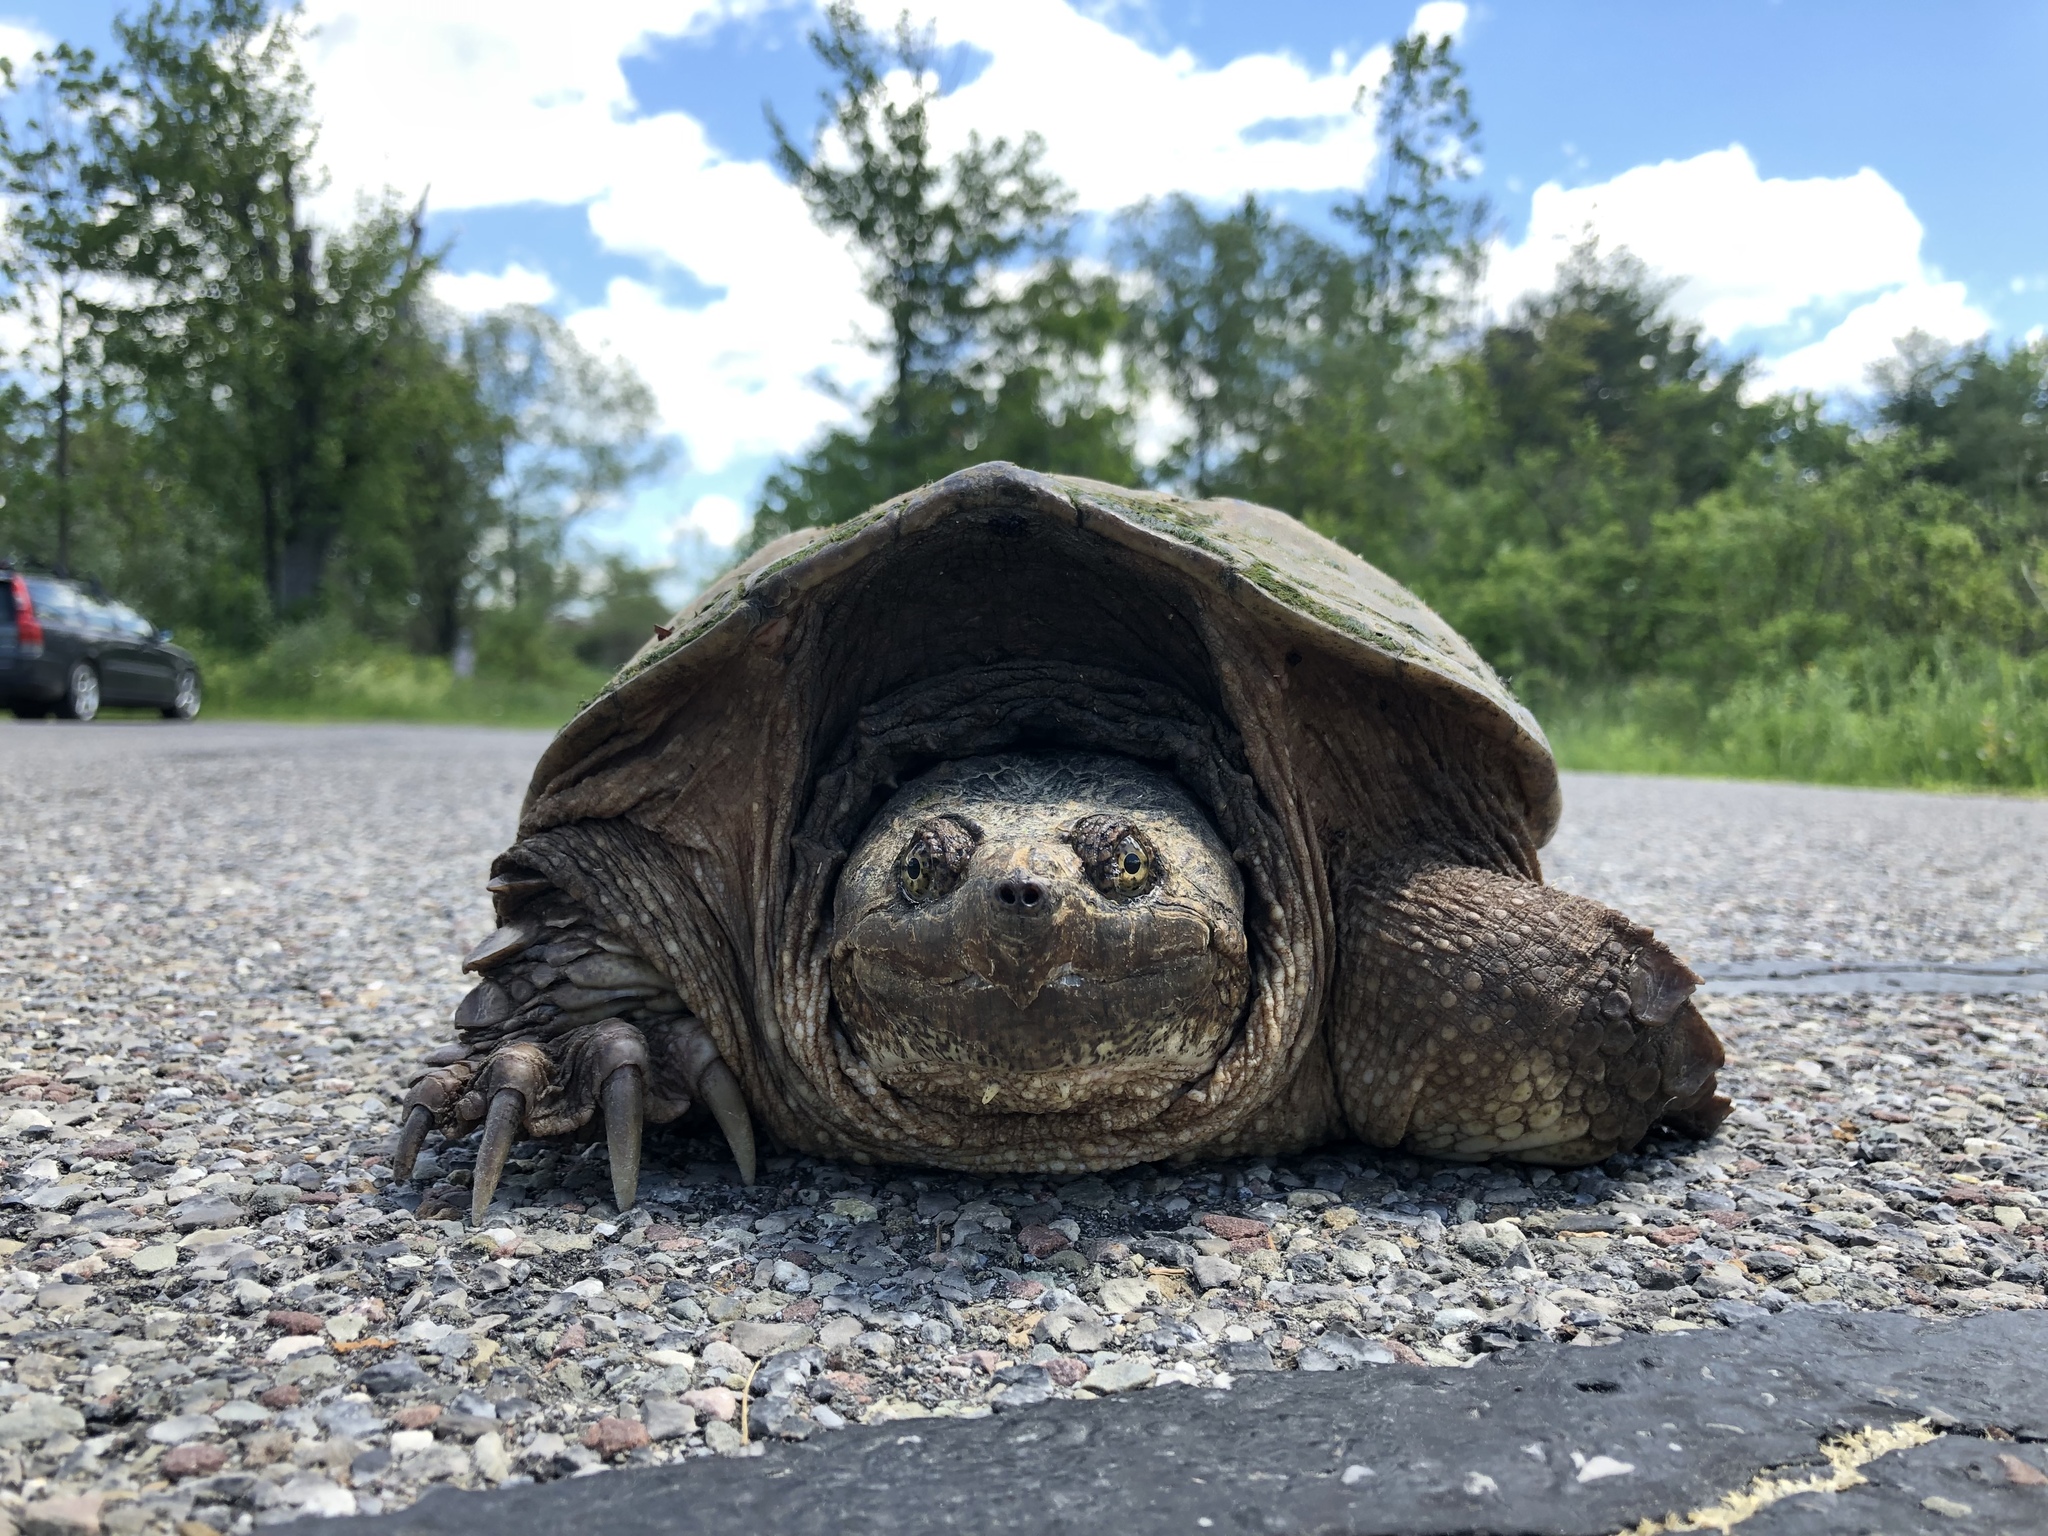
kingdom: Animalia
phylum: Chordata
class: Testudines
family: Chelydridae
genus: Chelydra
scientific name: Chelydra serpentina
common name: Common snapping turtle
